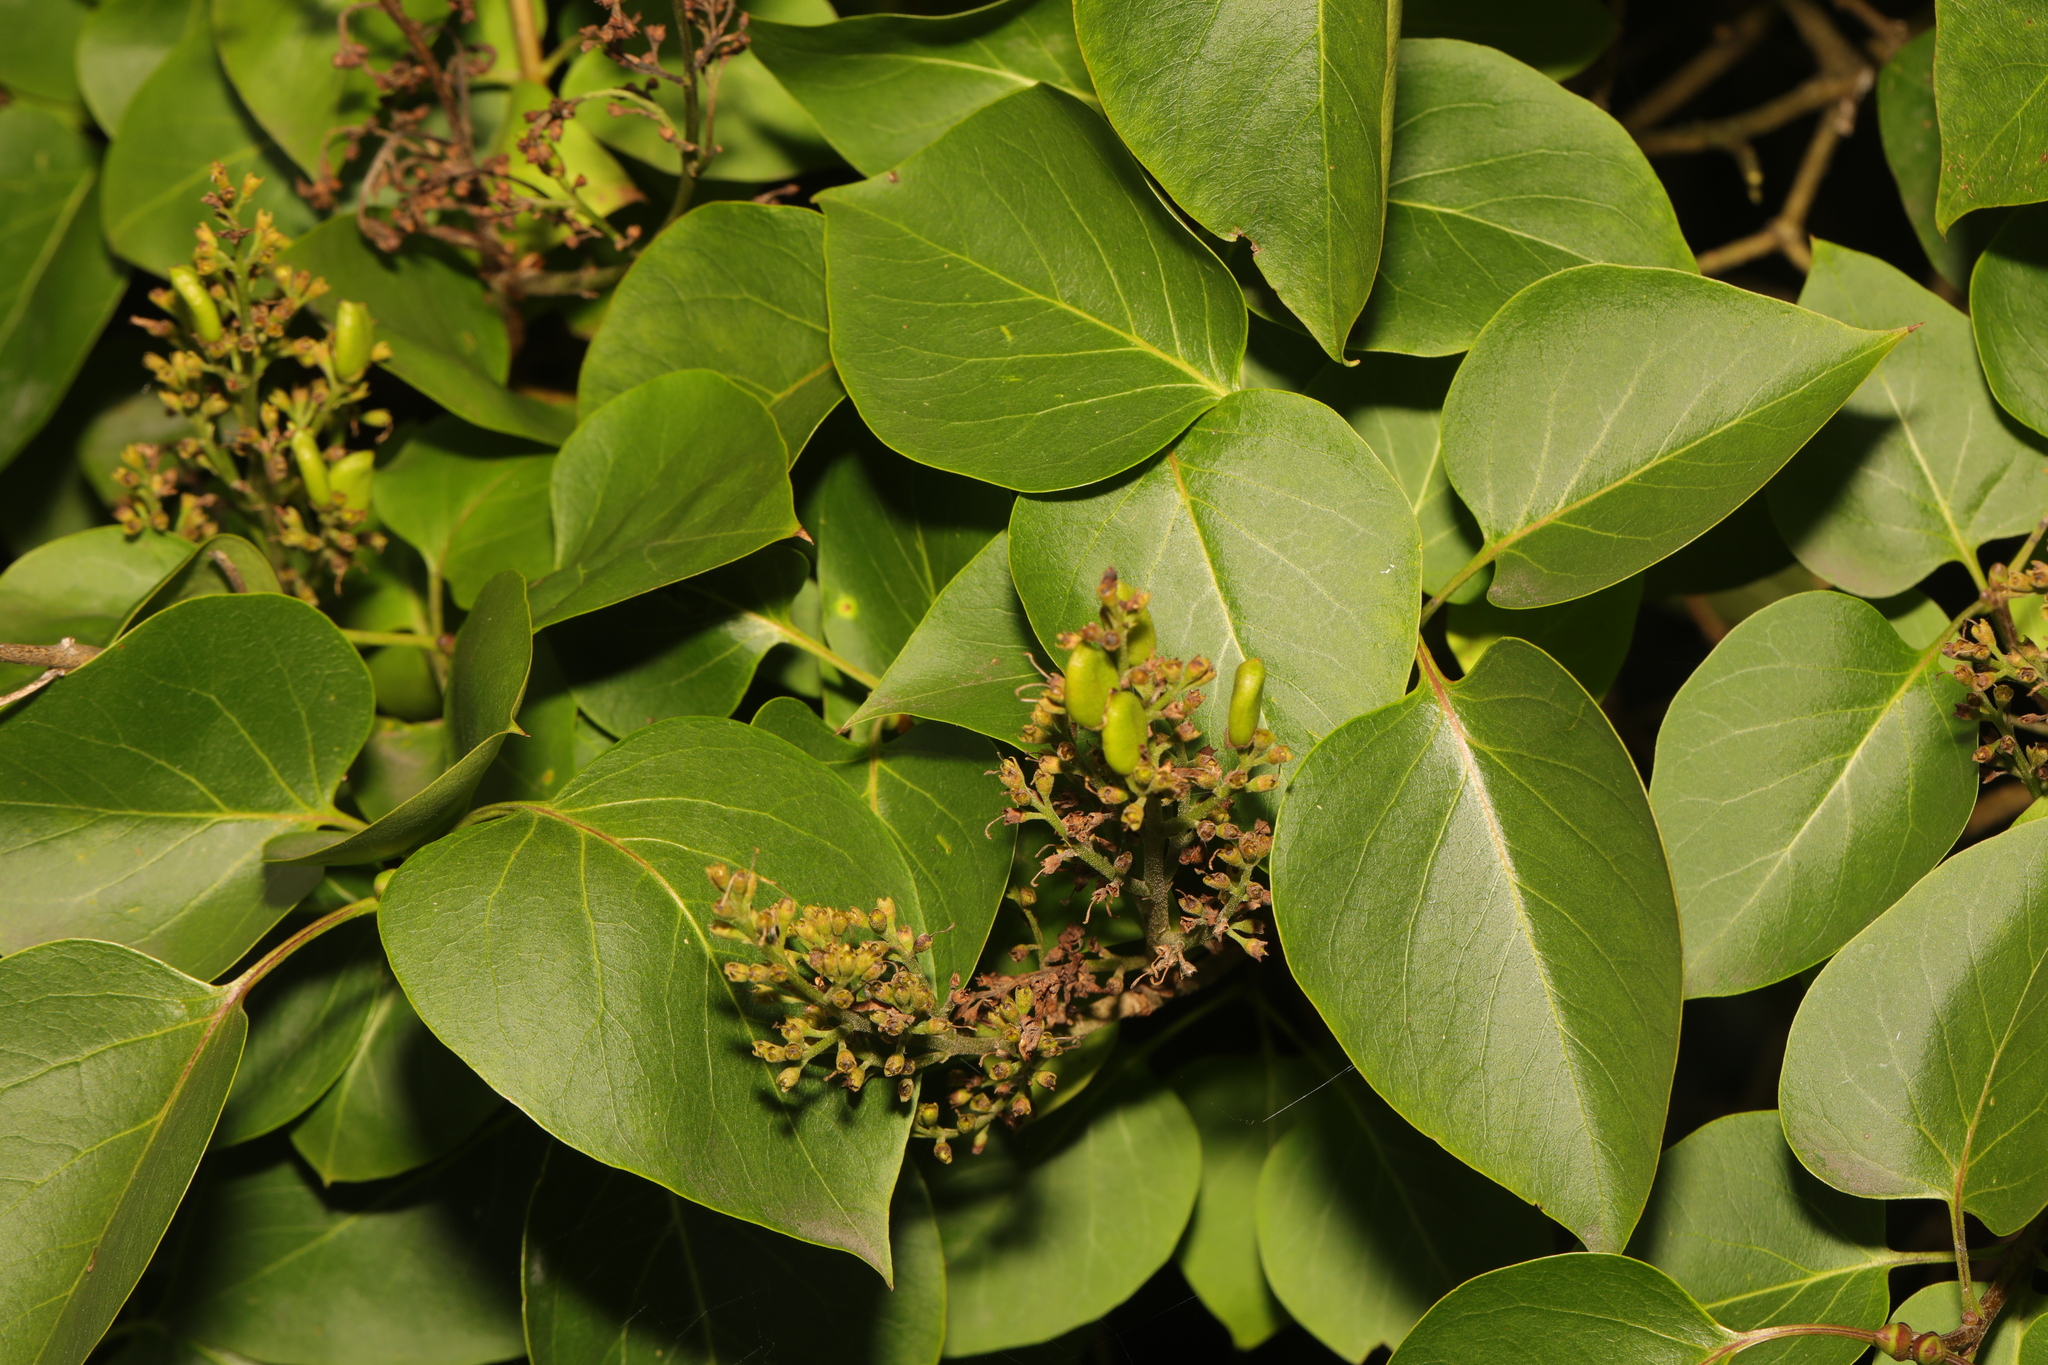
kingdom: Plantae
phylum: Tracheophyta
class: Magnoliopsida
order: Lamiales
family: Oleaceae
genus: Syringa
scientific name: Syringa vulgaris
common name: Common lilac
